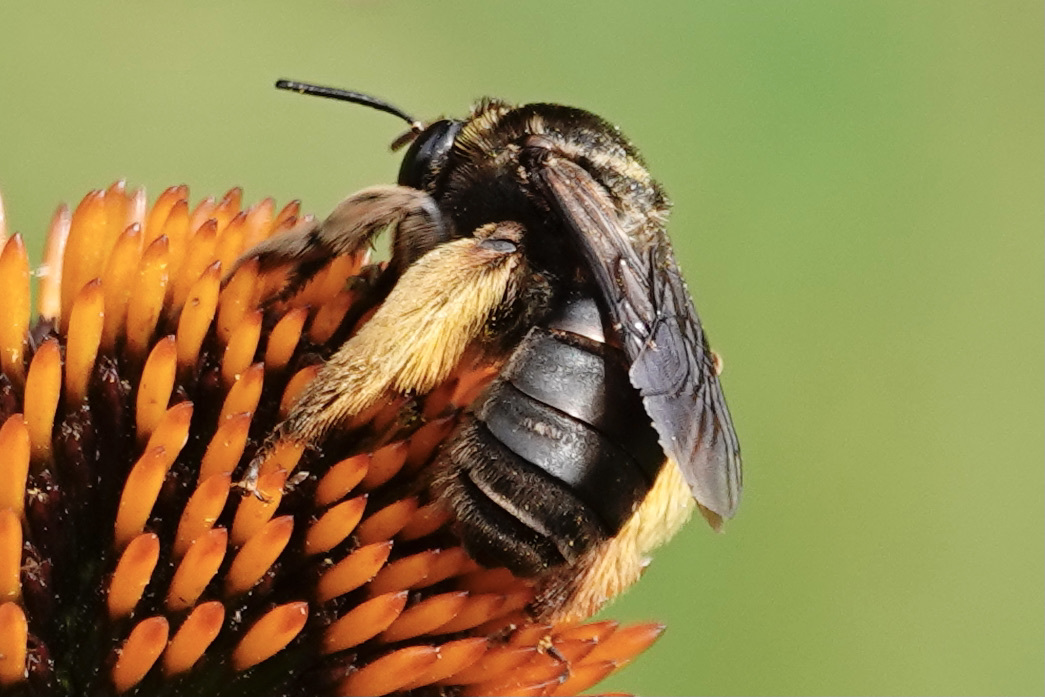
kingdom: Animalia
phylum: Arthropoda
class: Insecta
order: Hymenoptera
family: Apidae
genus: Svastra
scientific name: Svastra obliqua
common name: Oblique longhorn
